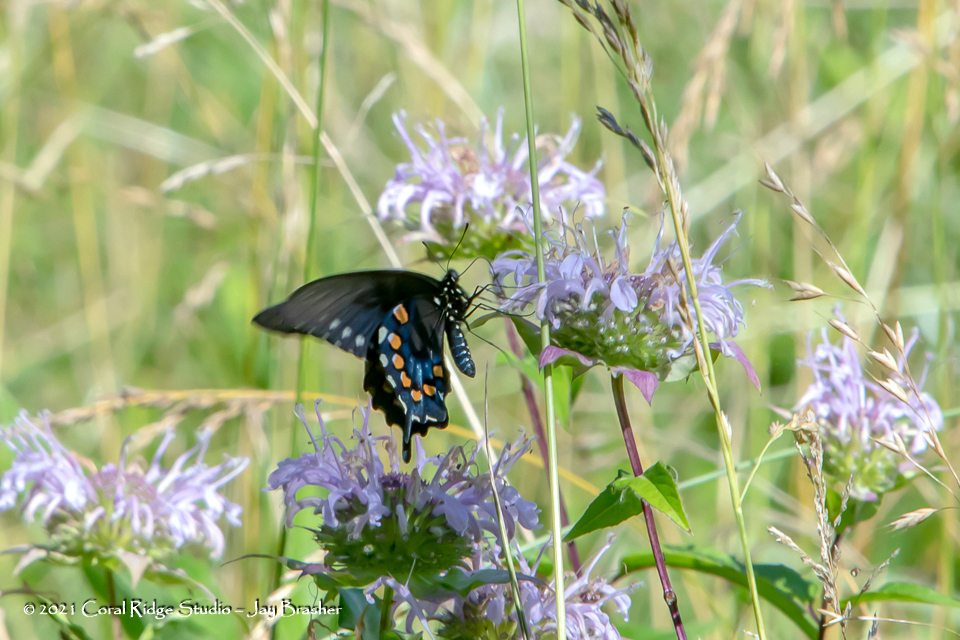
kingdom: Animalia
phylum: Arthropoda
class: Insecta
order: Lepidoptera
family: Papilionidae
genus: Battus
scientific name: Battus philenor
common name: Pipevine swallowtail
